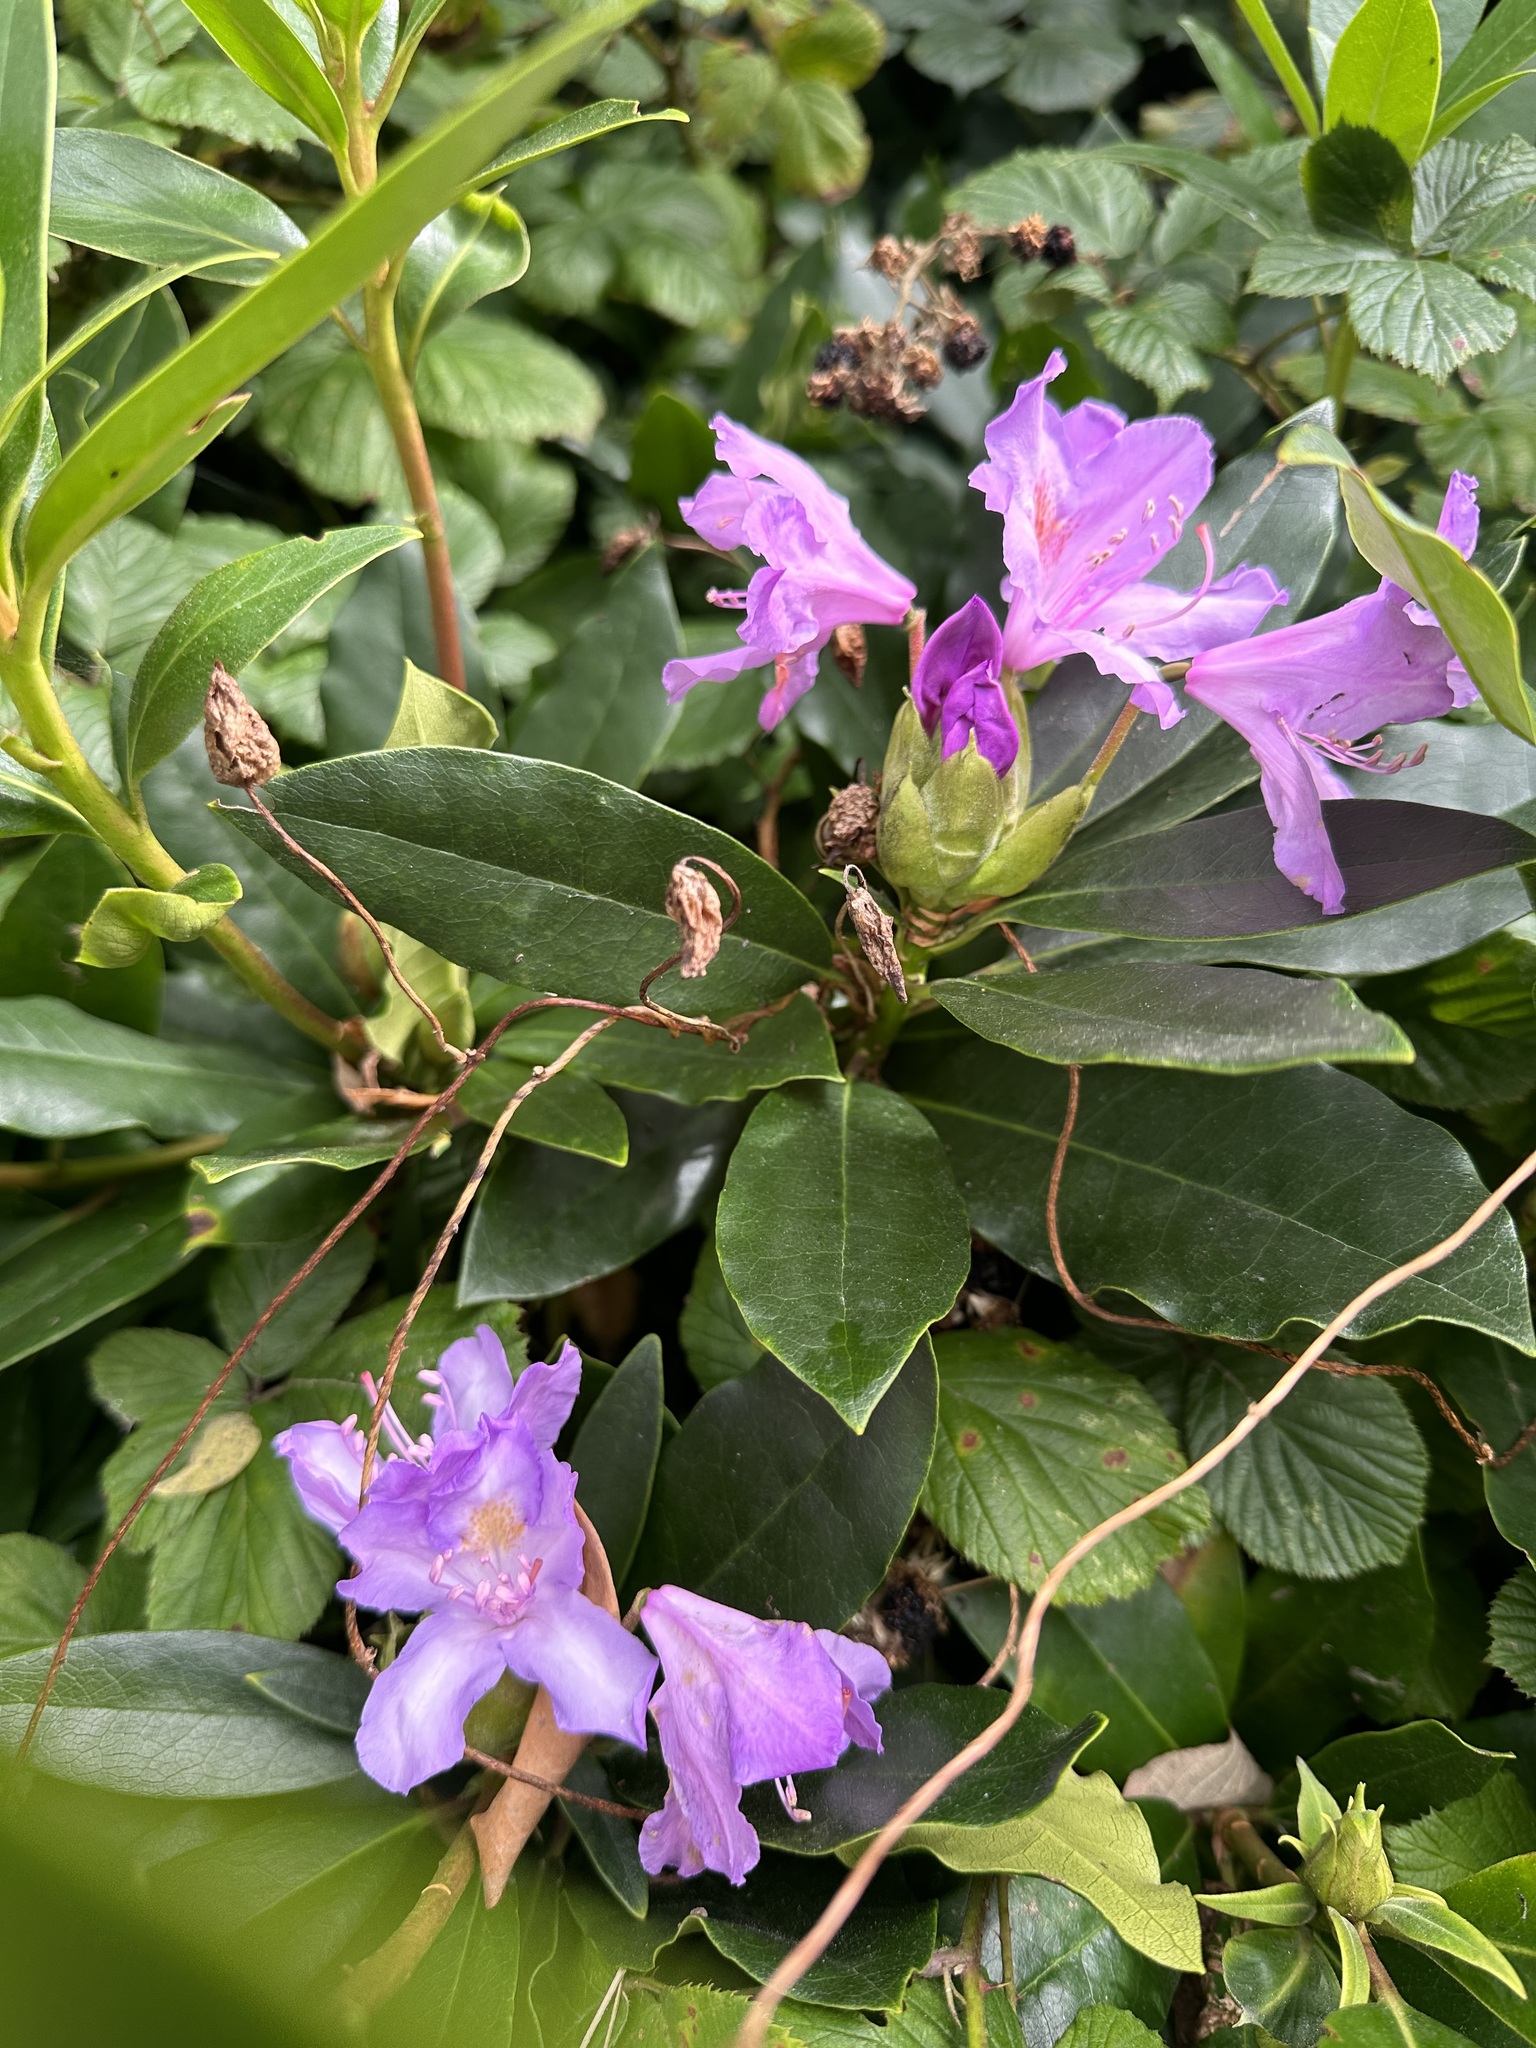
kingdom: Plantae
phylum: Tracheophyta
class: Magnoliopsida
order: Ericales
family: Ericaceae
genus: Rhododendron
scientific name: Rhododendron ponticum
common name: Rhododendron
